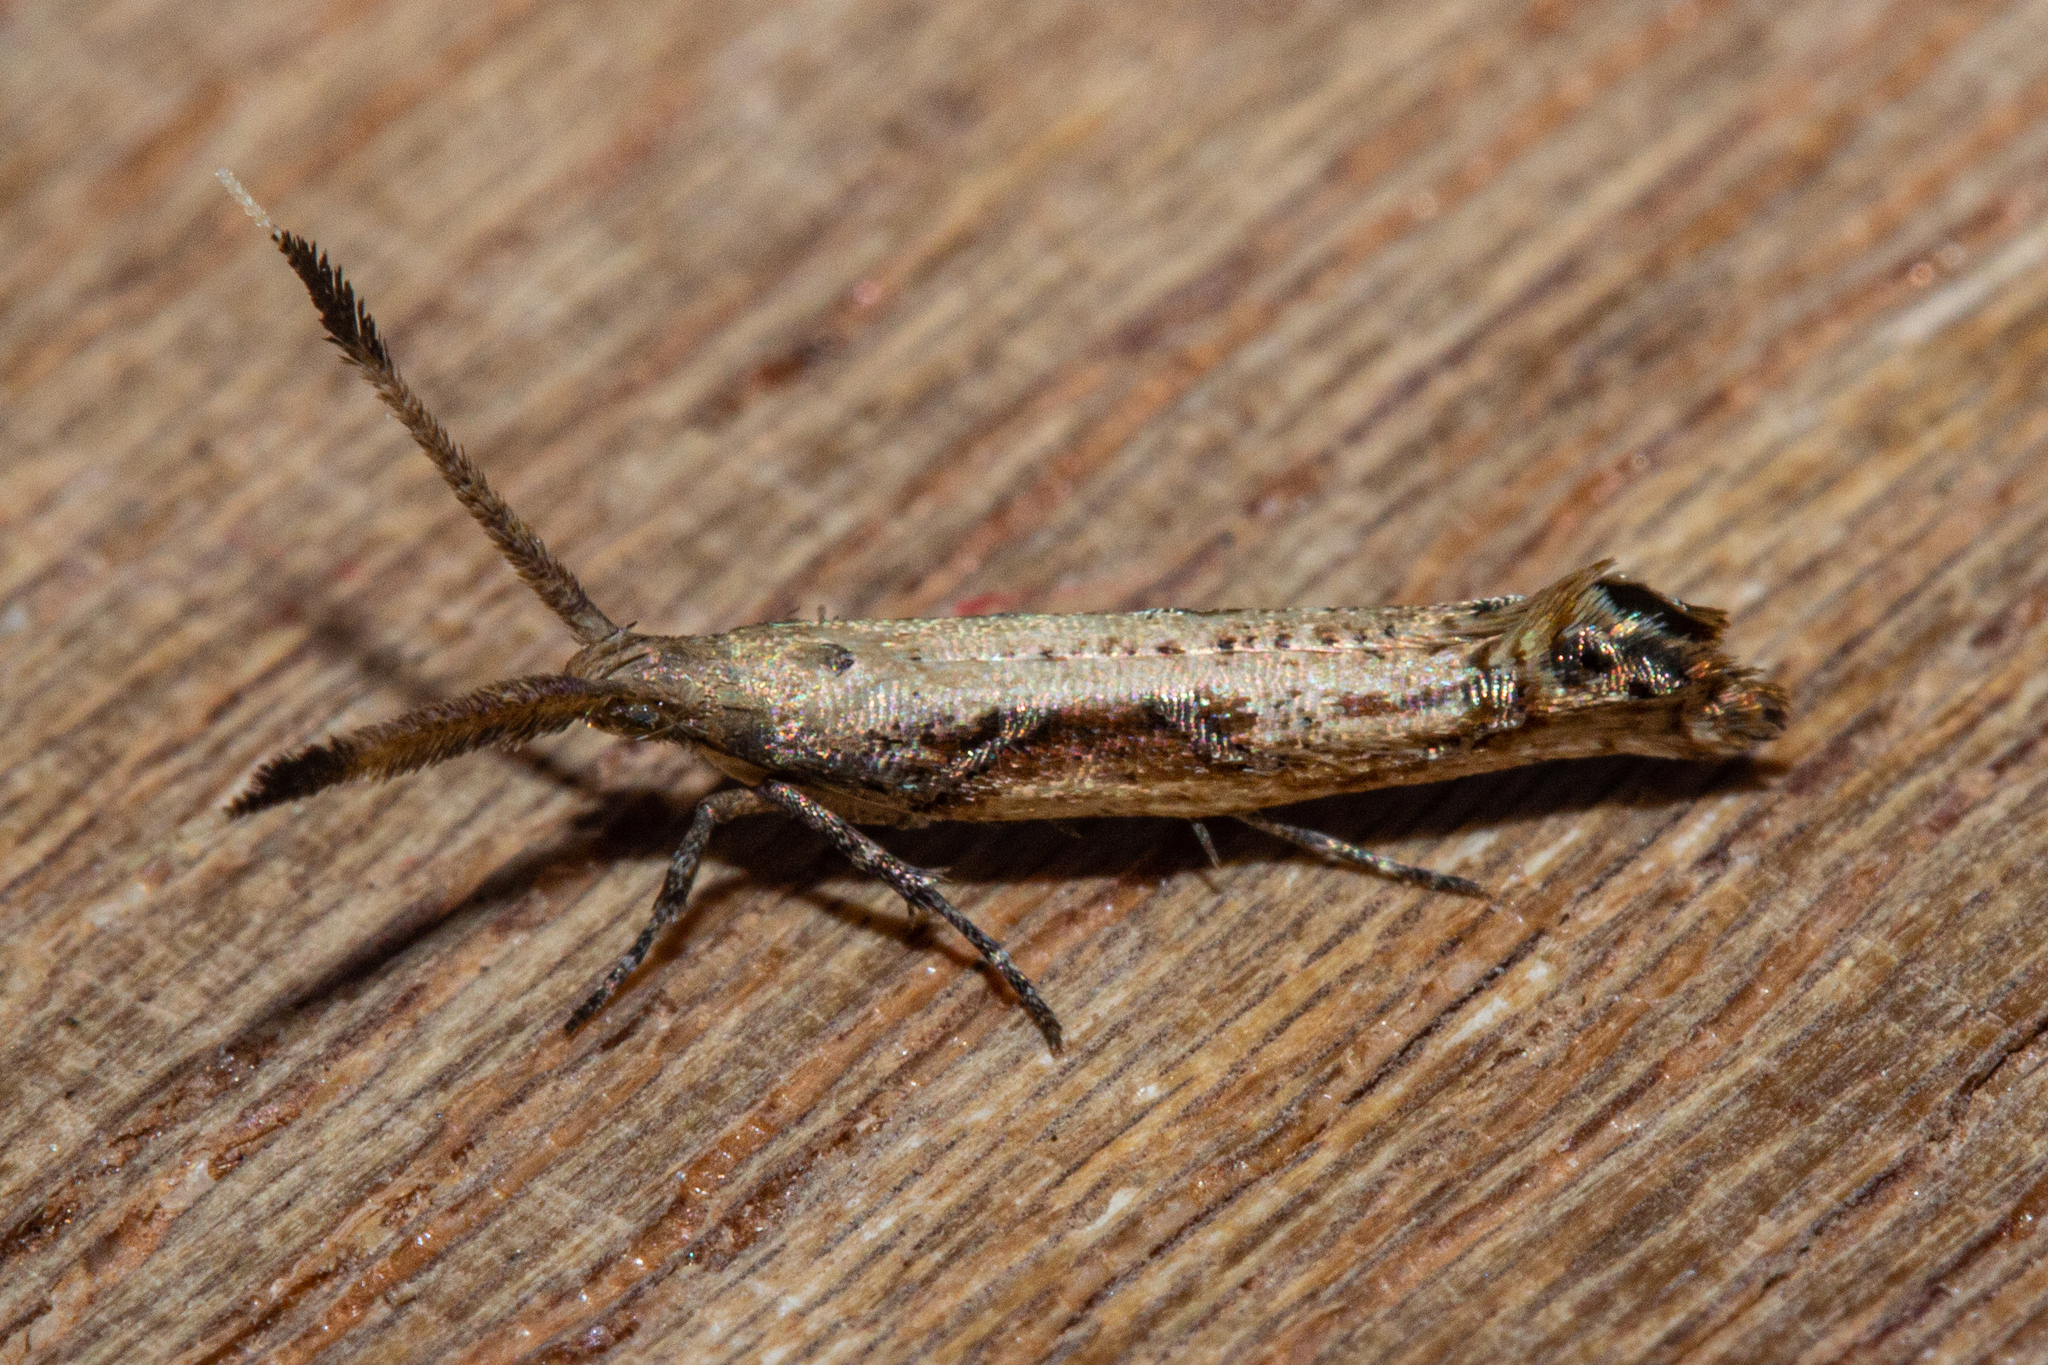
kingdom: Animalia
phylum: Arthropoda
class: Insecta
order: Lepidoptera
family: Plutellidae
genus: Protosynaema
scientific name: Protosynaema steropucha
